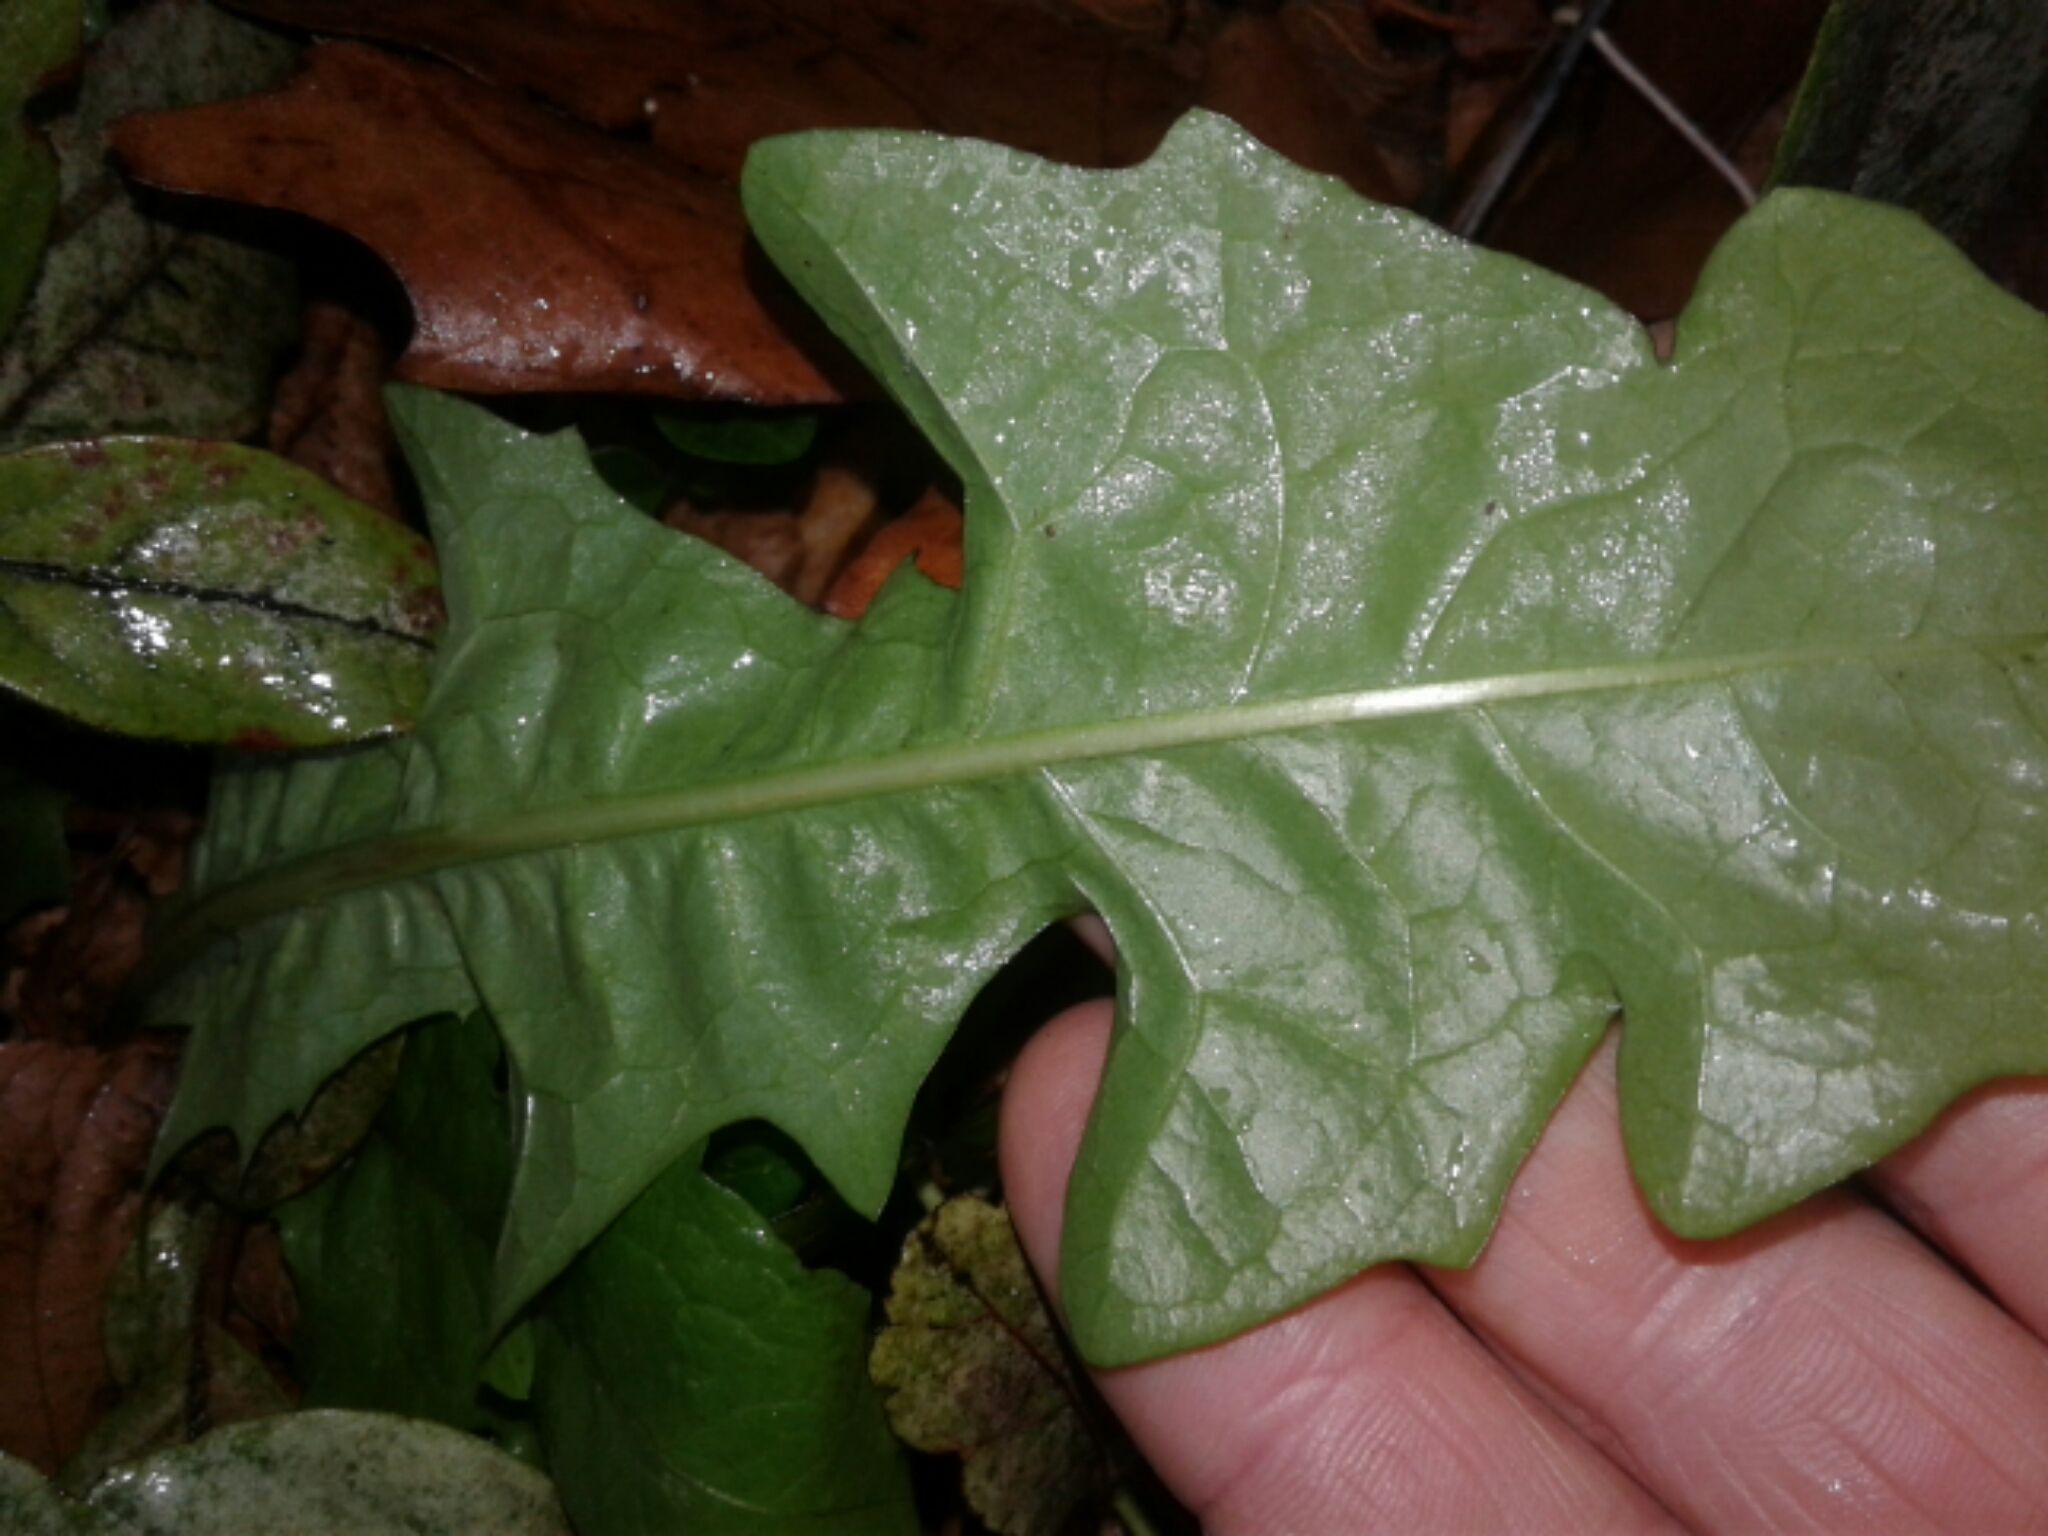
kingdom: Plantae
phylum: Tracheophyta
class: Magnoliopsida
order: Asterales
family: Asteraceae
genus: Taraxacum
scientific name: Taraxacum officinale
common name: Common dandelion
